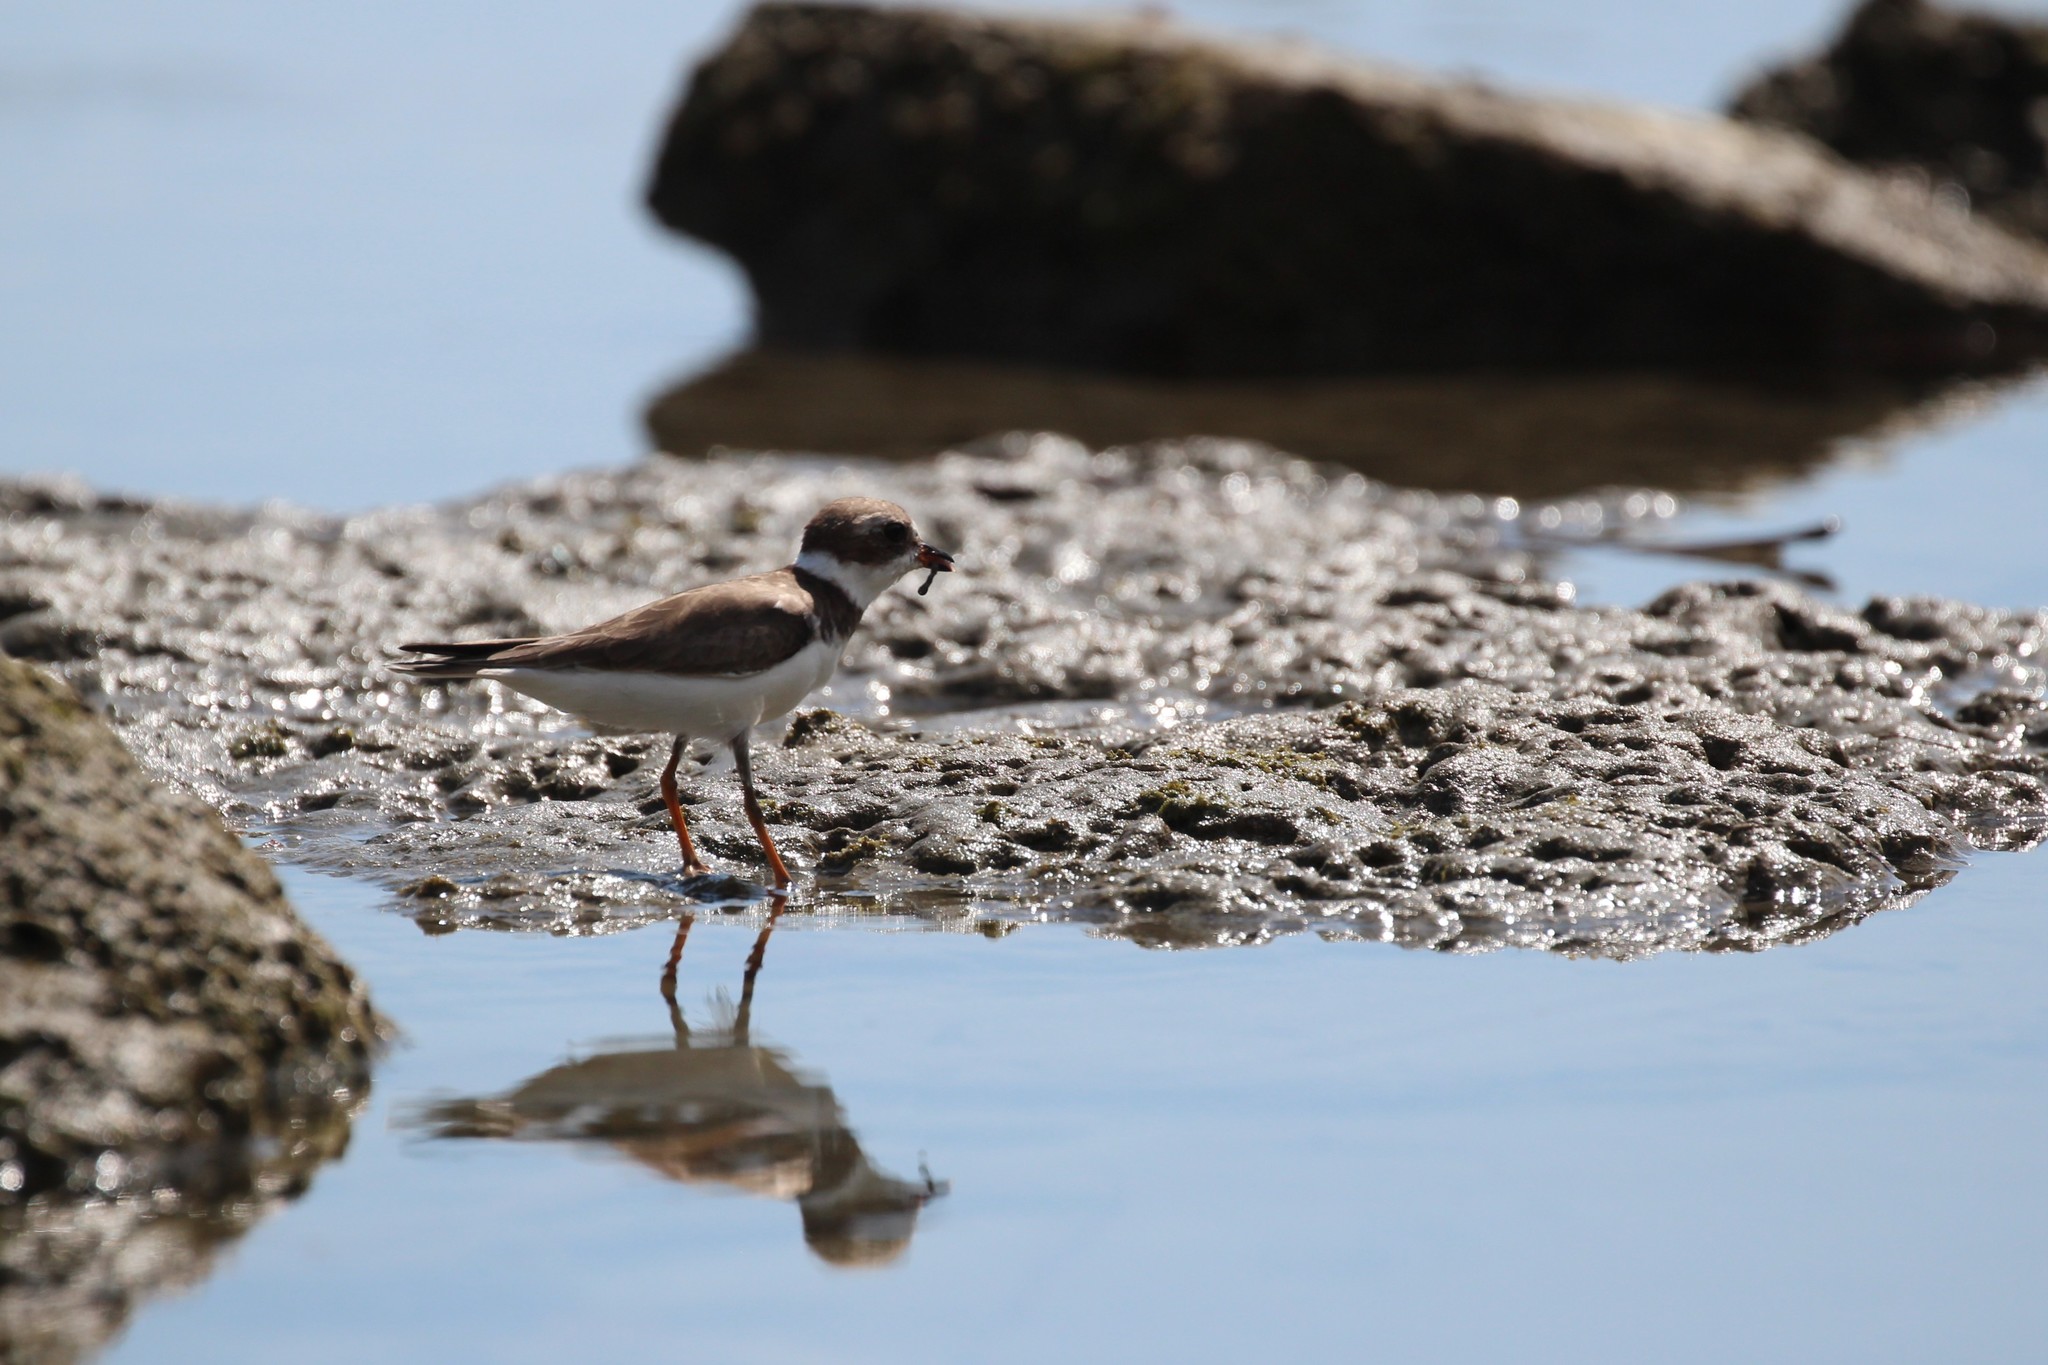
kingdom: Animalia
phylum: Chordata
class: Aves
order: Charadriiformes
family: Charadriidae
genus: Charadrius
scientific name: Charadrius semipalmatus
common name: Semipalmated plover
